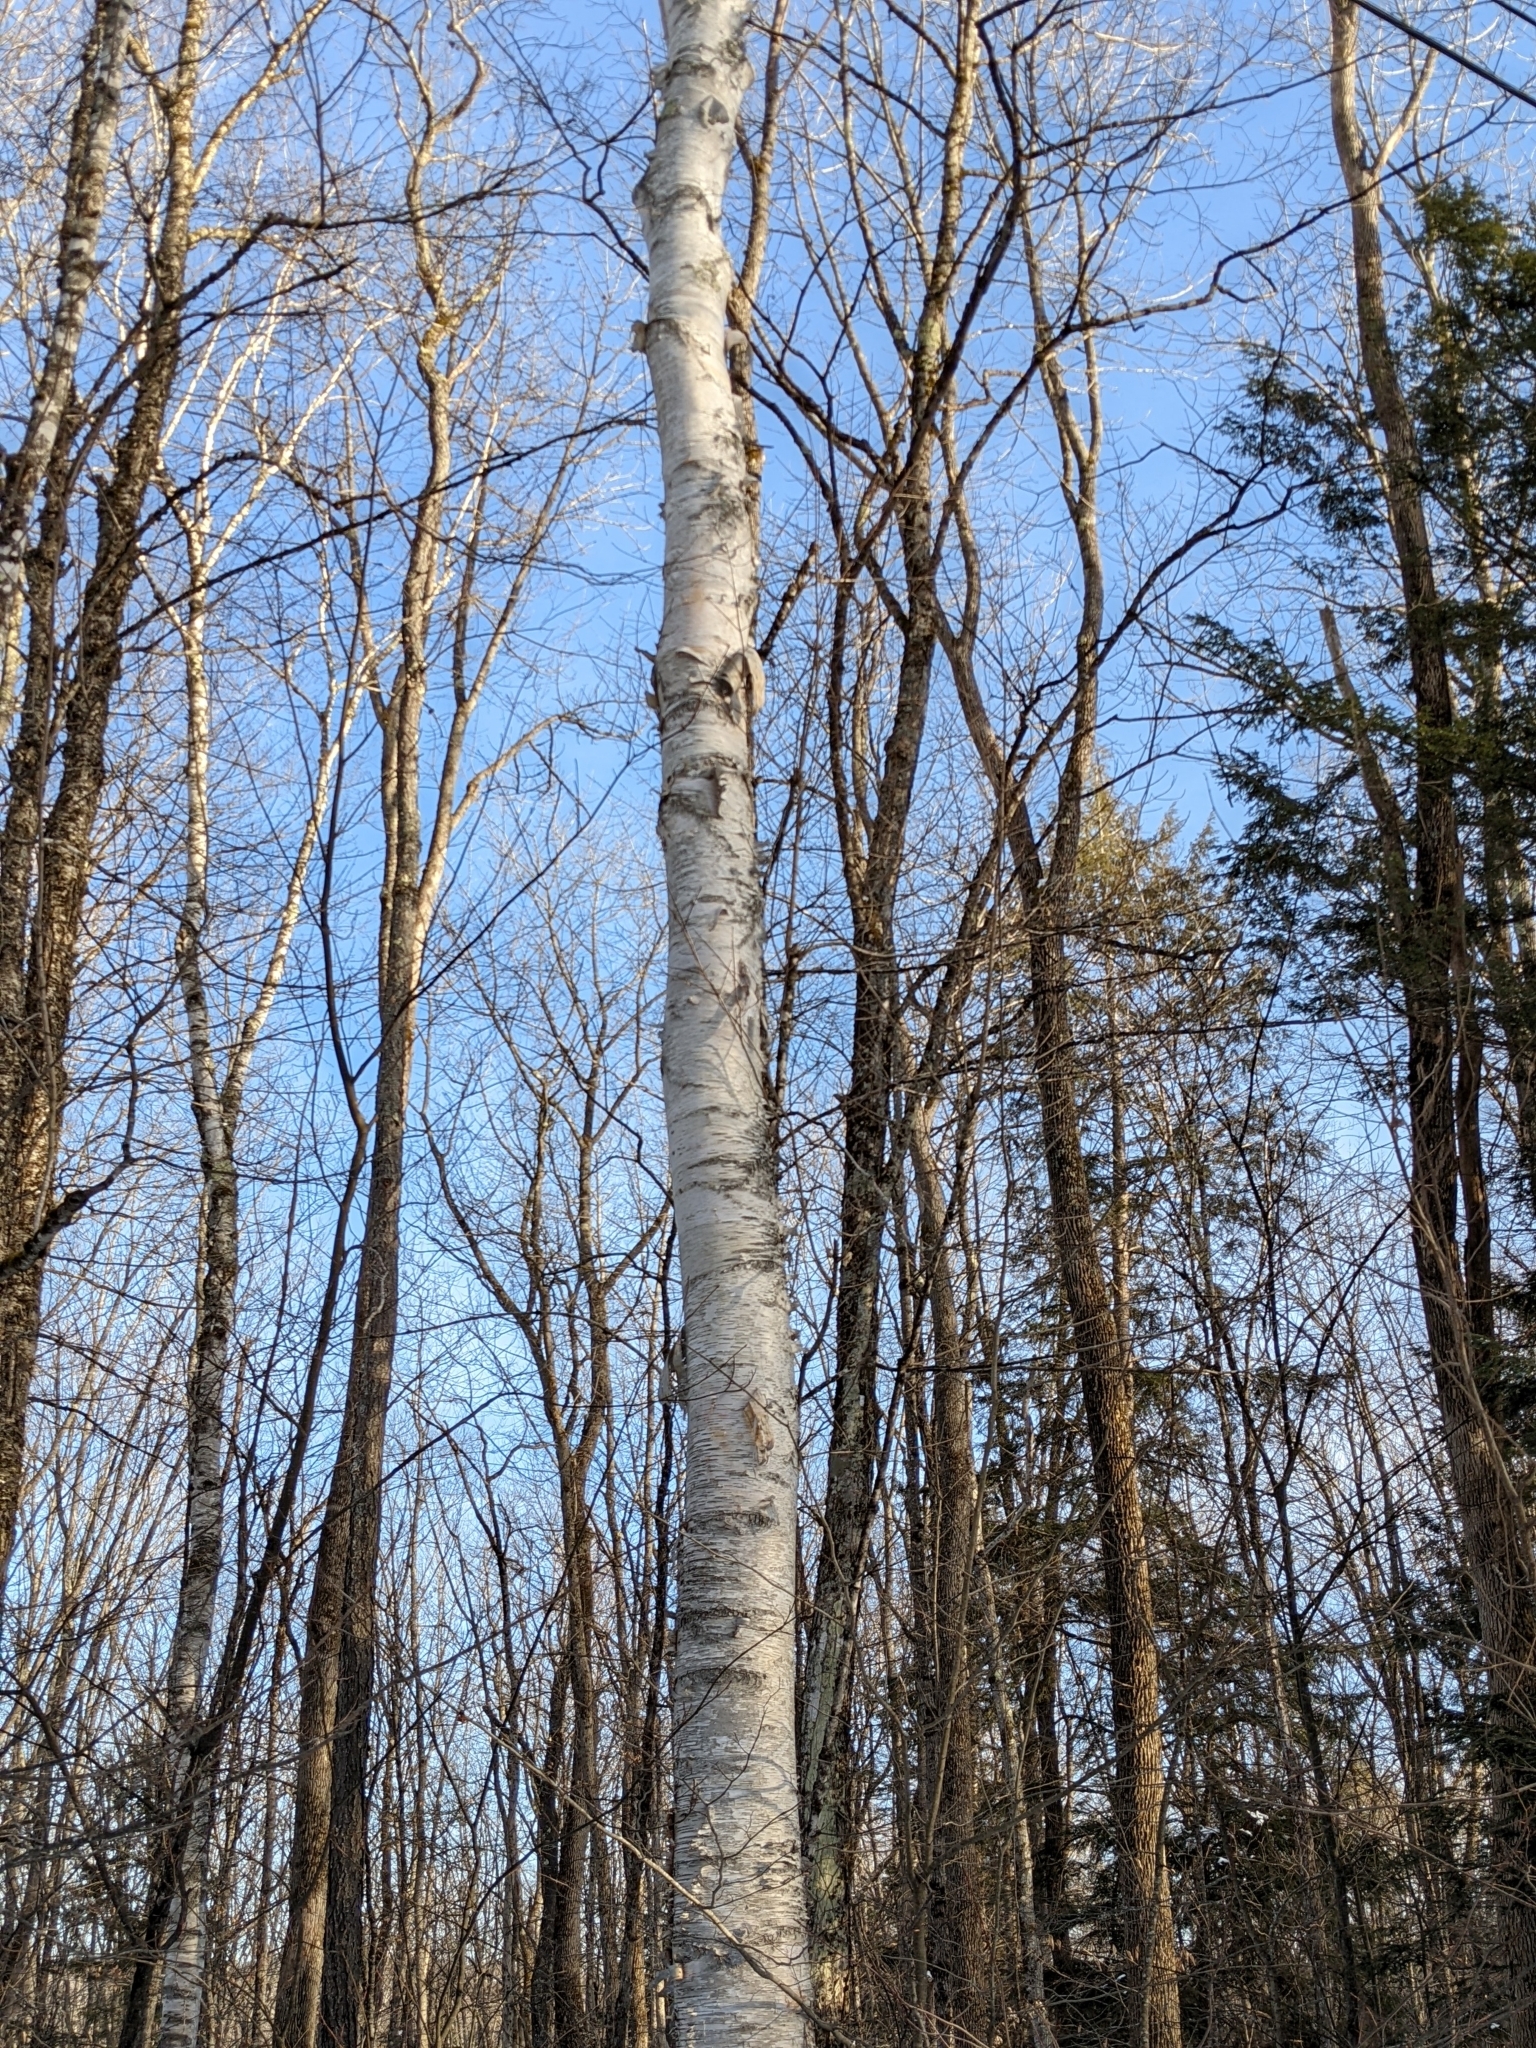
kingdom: Plantae
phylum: Tracheophyta
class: Magnoliopsida
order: Fagales
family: Betulaceae
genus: Betula
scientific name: Betula papyrifera
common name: Paper birch
